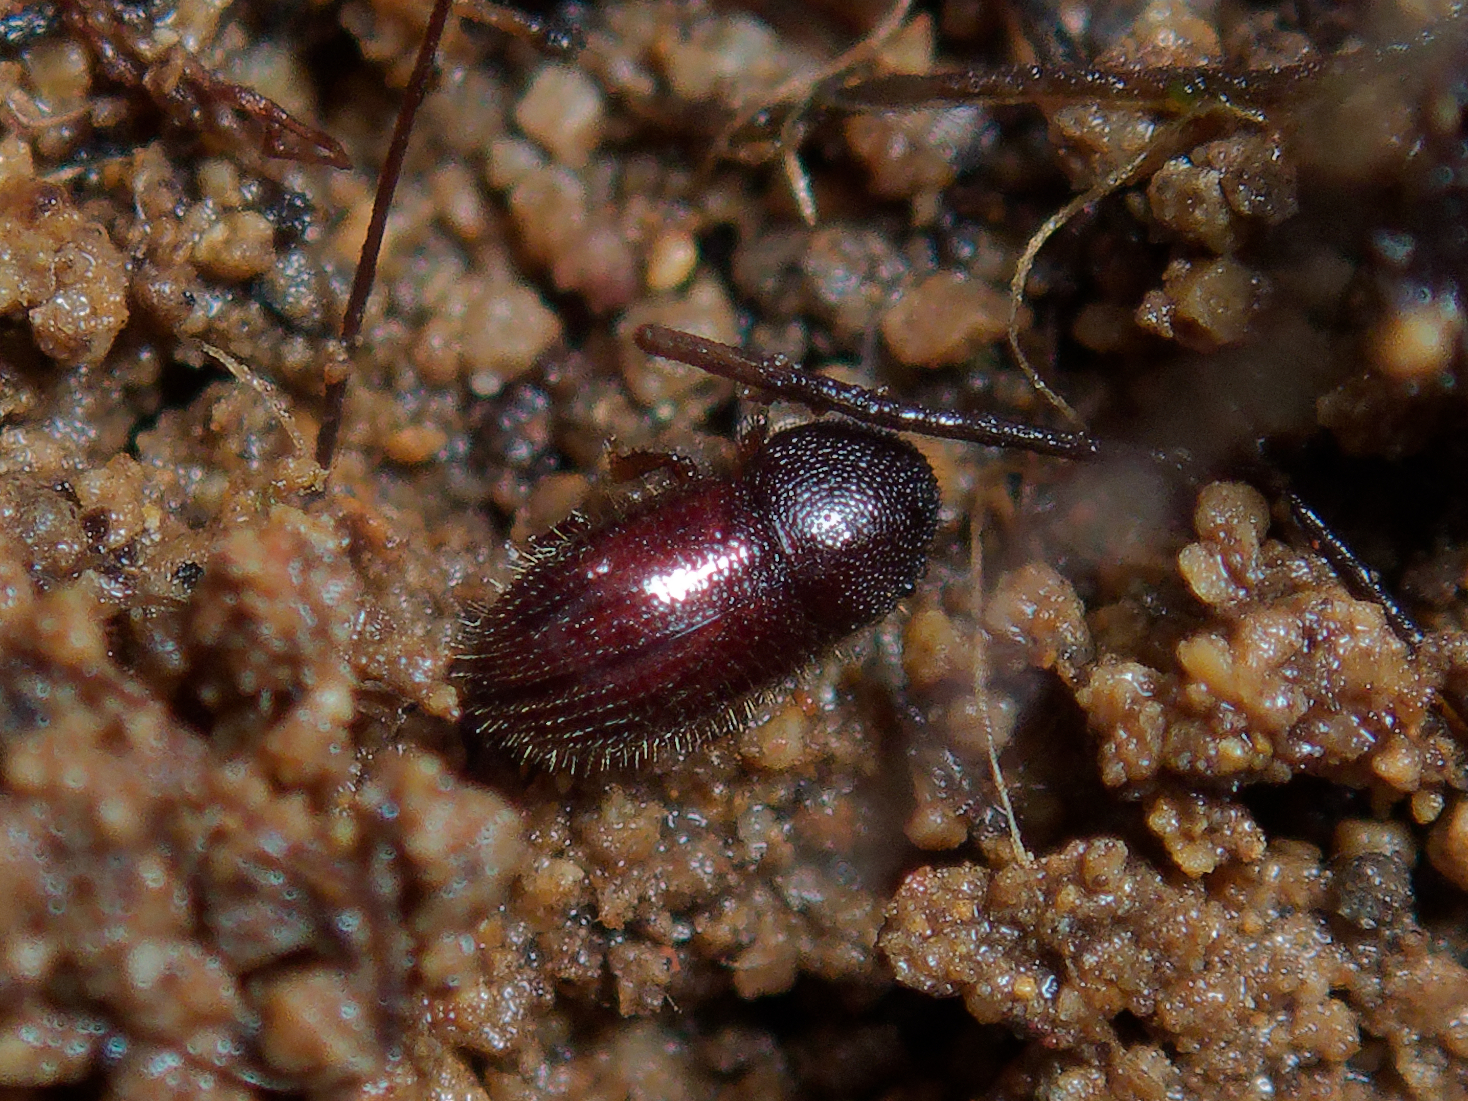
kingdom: Animalia
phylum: Arthropoda
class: Insecta
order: Coleoptera
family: Curculionidae
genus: Coccotrypes
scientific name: Coccotrypes dactyliperda
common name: Bark beetle
